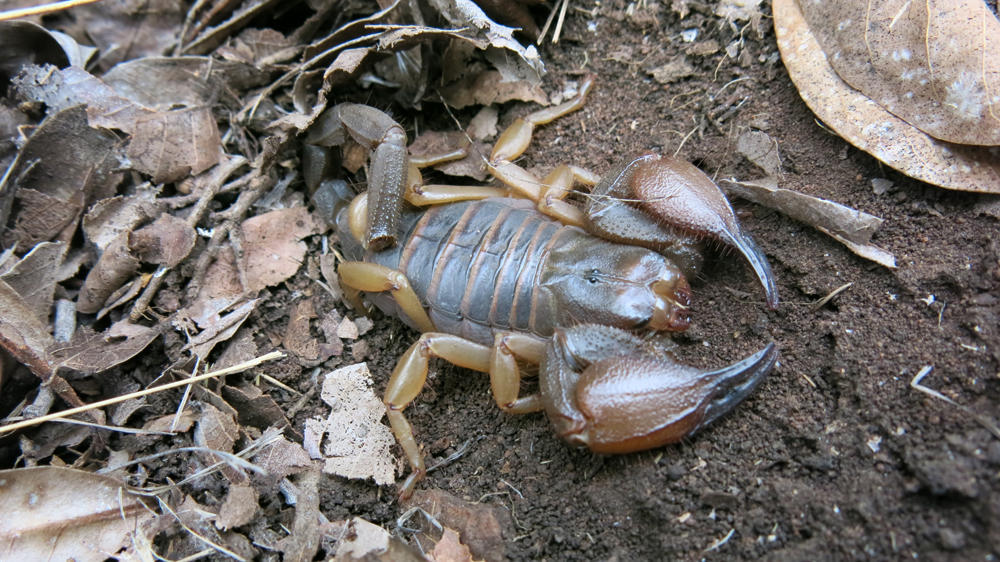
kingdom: Animalia
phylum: Arthropoda
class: Arachnida
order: Scorpiones
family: Scorpionidae
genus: Opistophthalmus
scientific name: Opistophthalmus lawrencei
